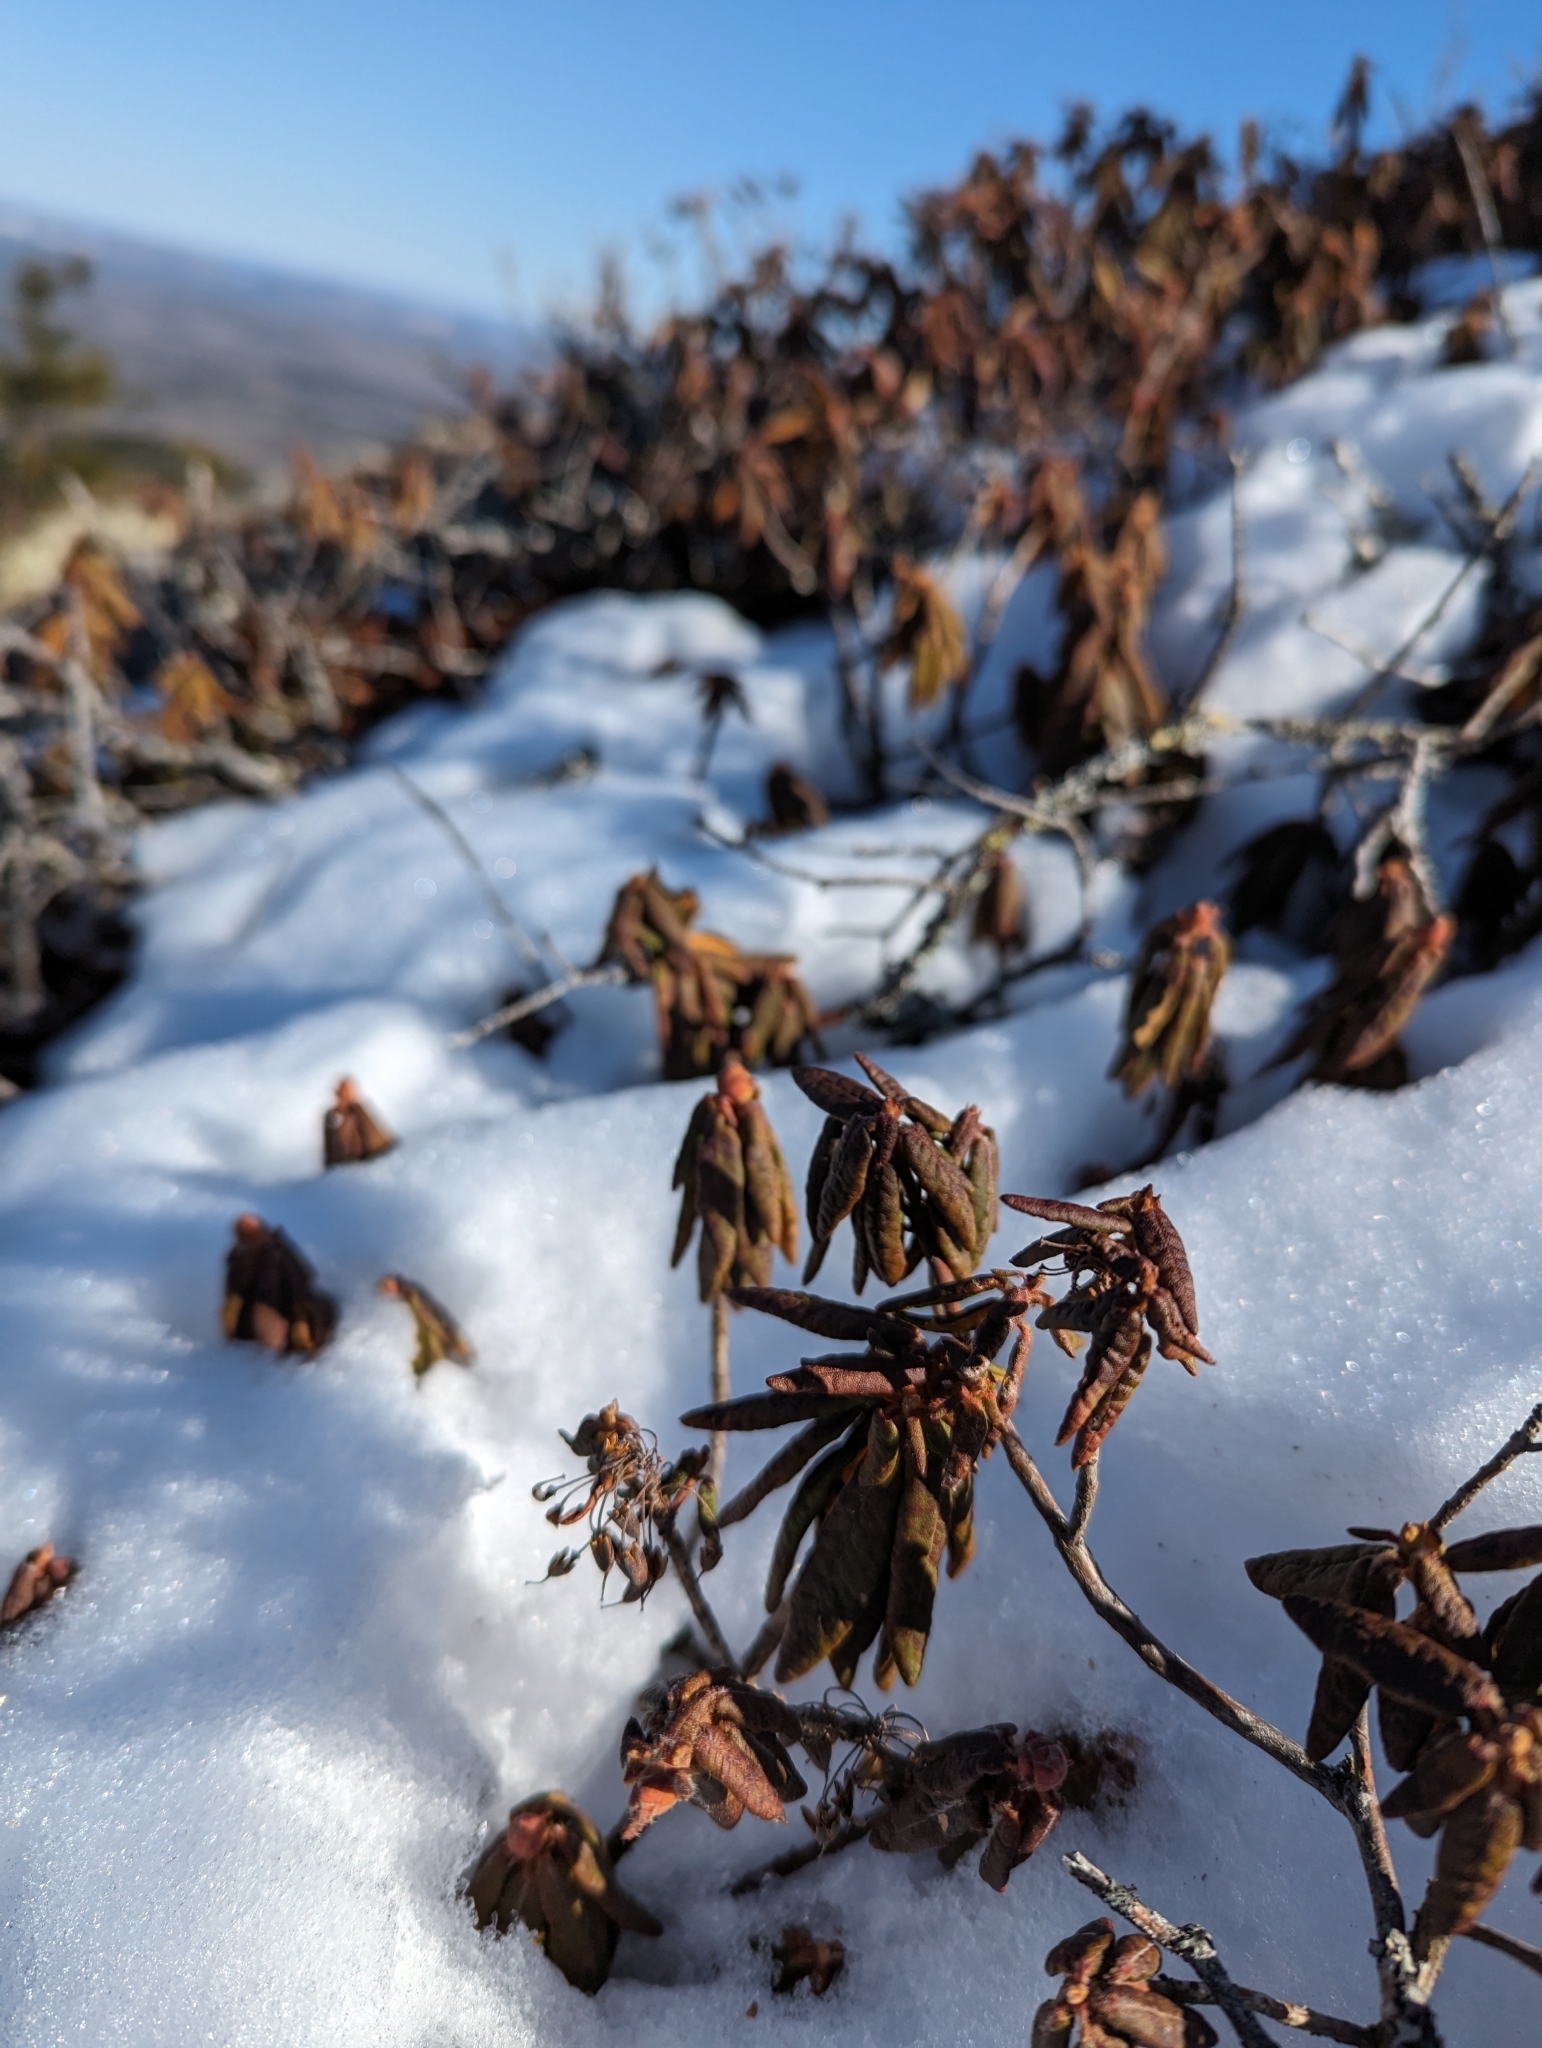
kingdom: Plantae
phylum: Tracheophyta
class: Magnoliopsida
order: Ericales
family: Ericaceae
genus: Rhododendron
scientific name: Rhododendron groenlandicum
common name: Bog labrador tea
